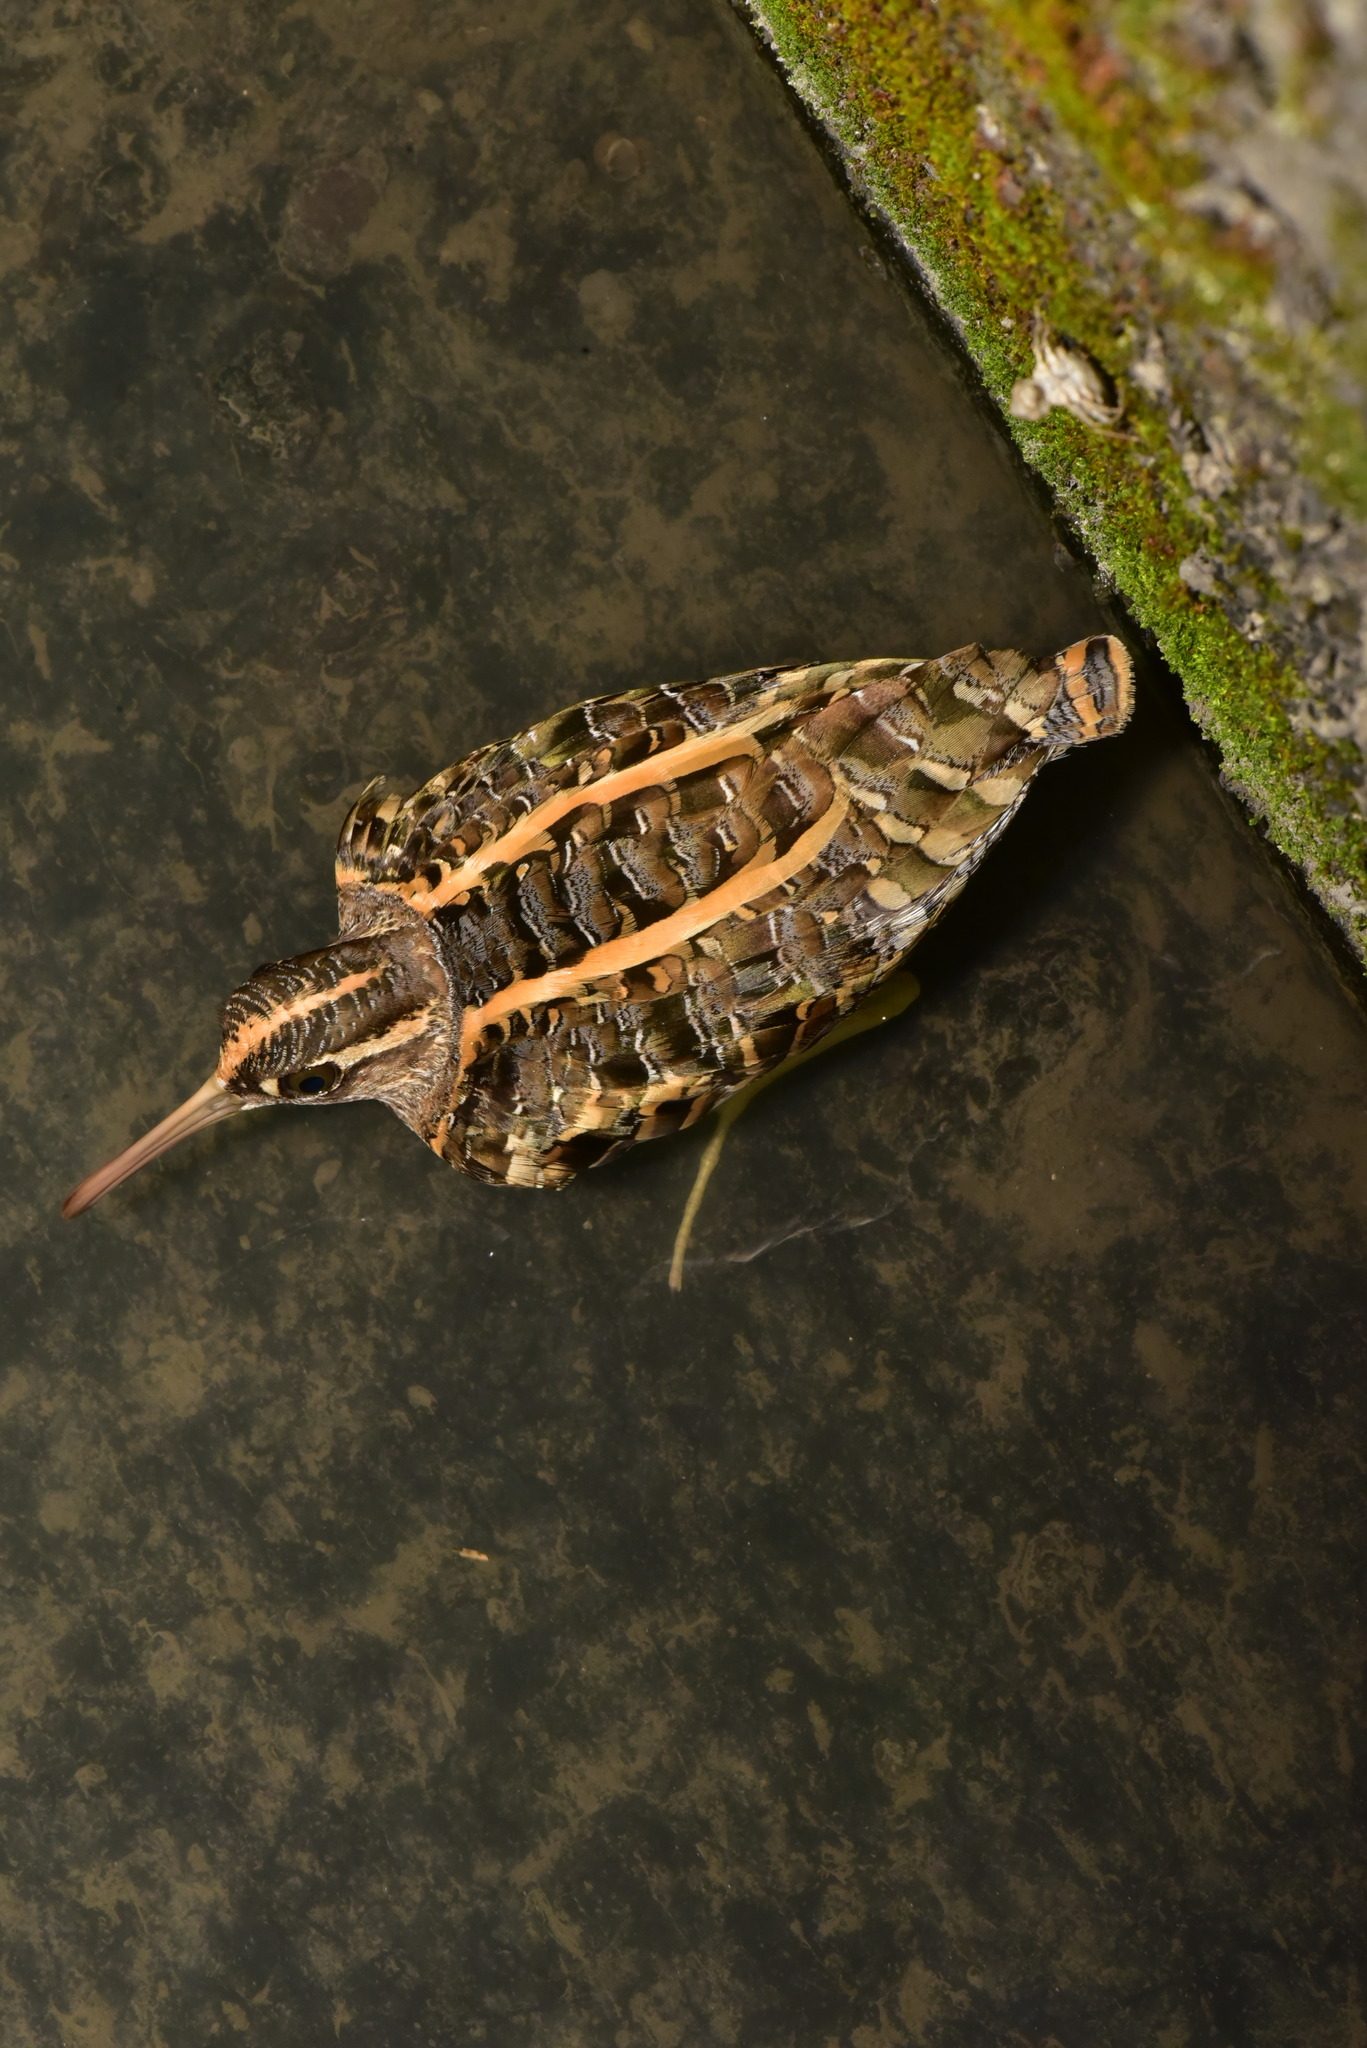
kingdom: Animalia
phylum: Chordata
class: Aves
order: Charadriiformes
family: Rostratulidae
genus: Rostratula
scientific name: Rostratula benghalensis
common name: Greater painted-snipe
